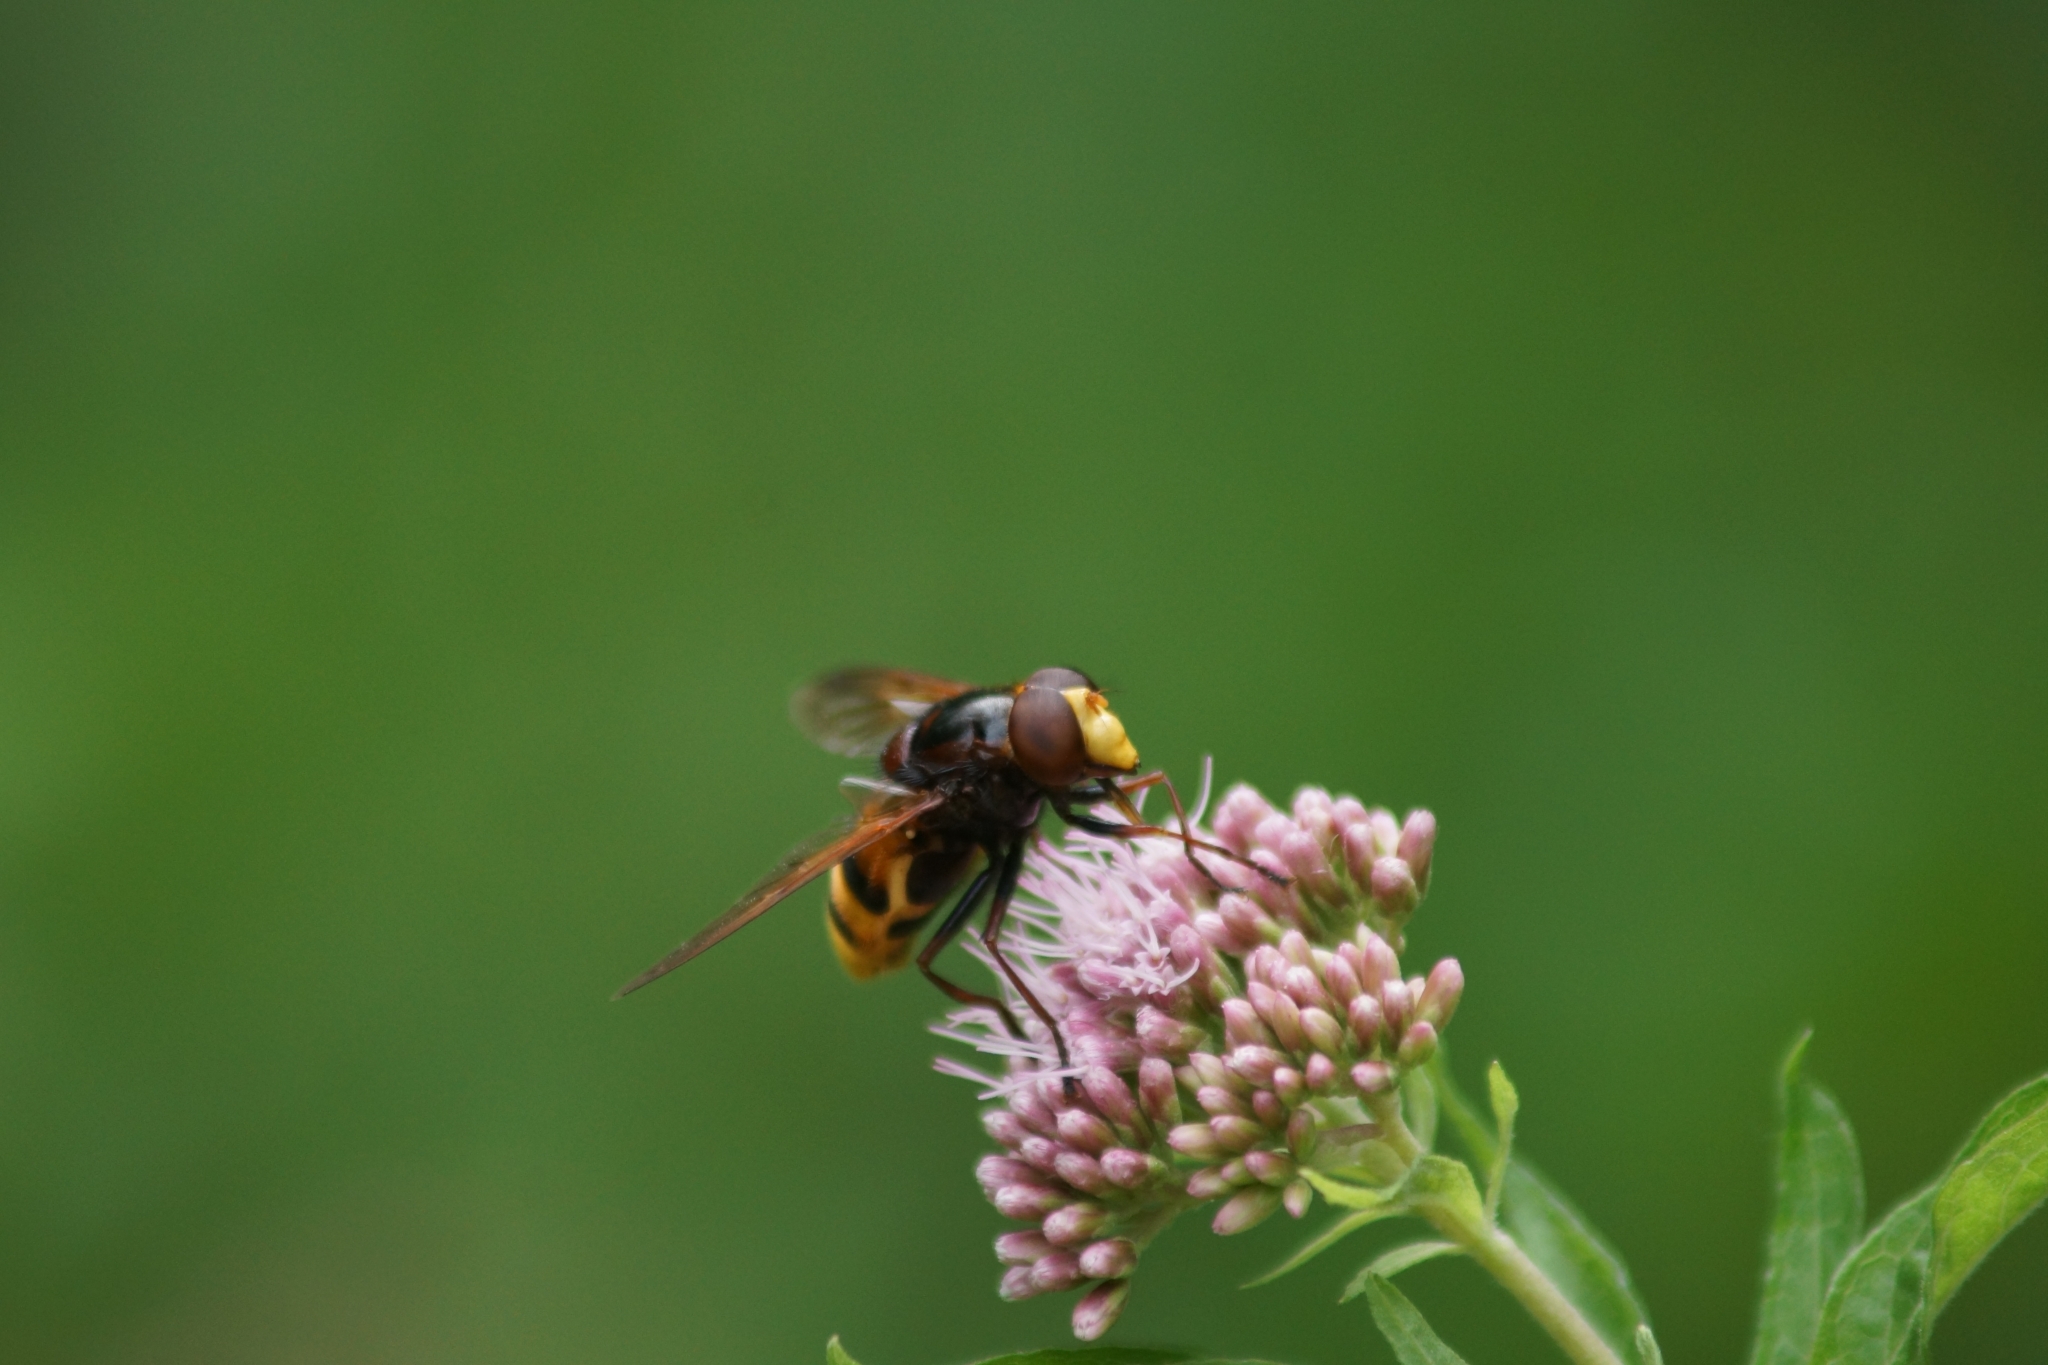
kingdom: Animalia
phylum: Arthropoda
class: Insecta
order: Diptera
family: Syrphidae
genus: Volucella
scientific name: Volucella zonaria
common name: Hornet hoverfly
